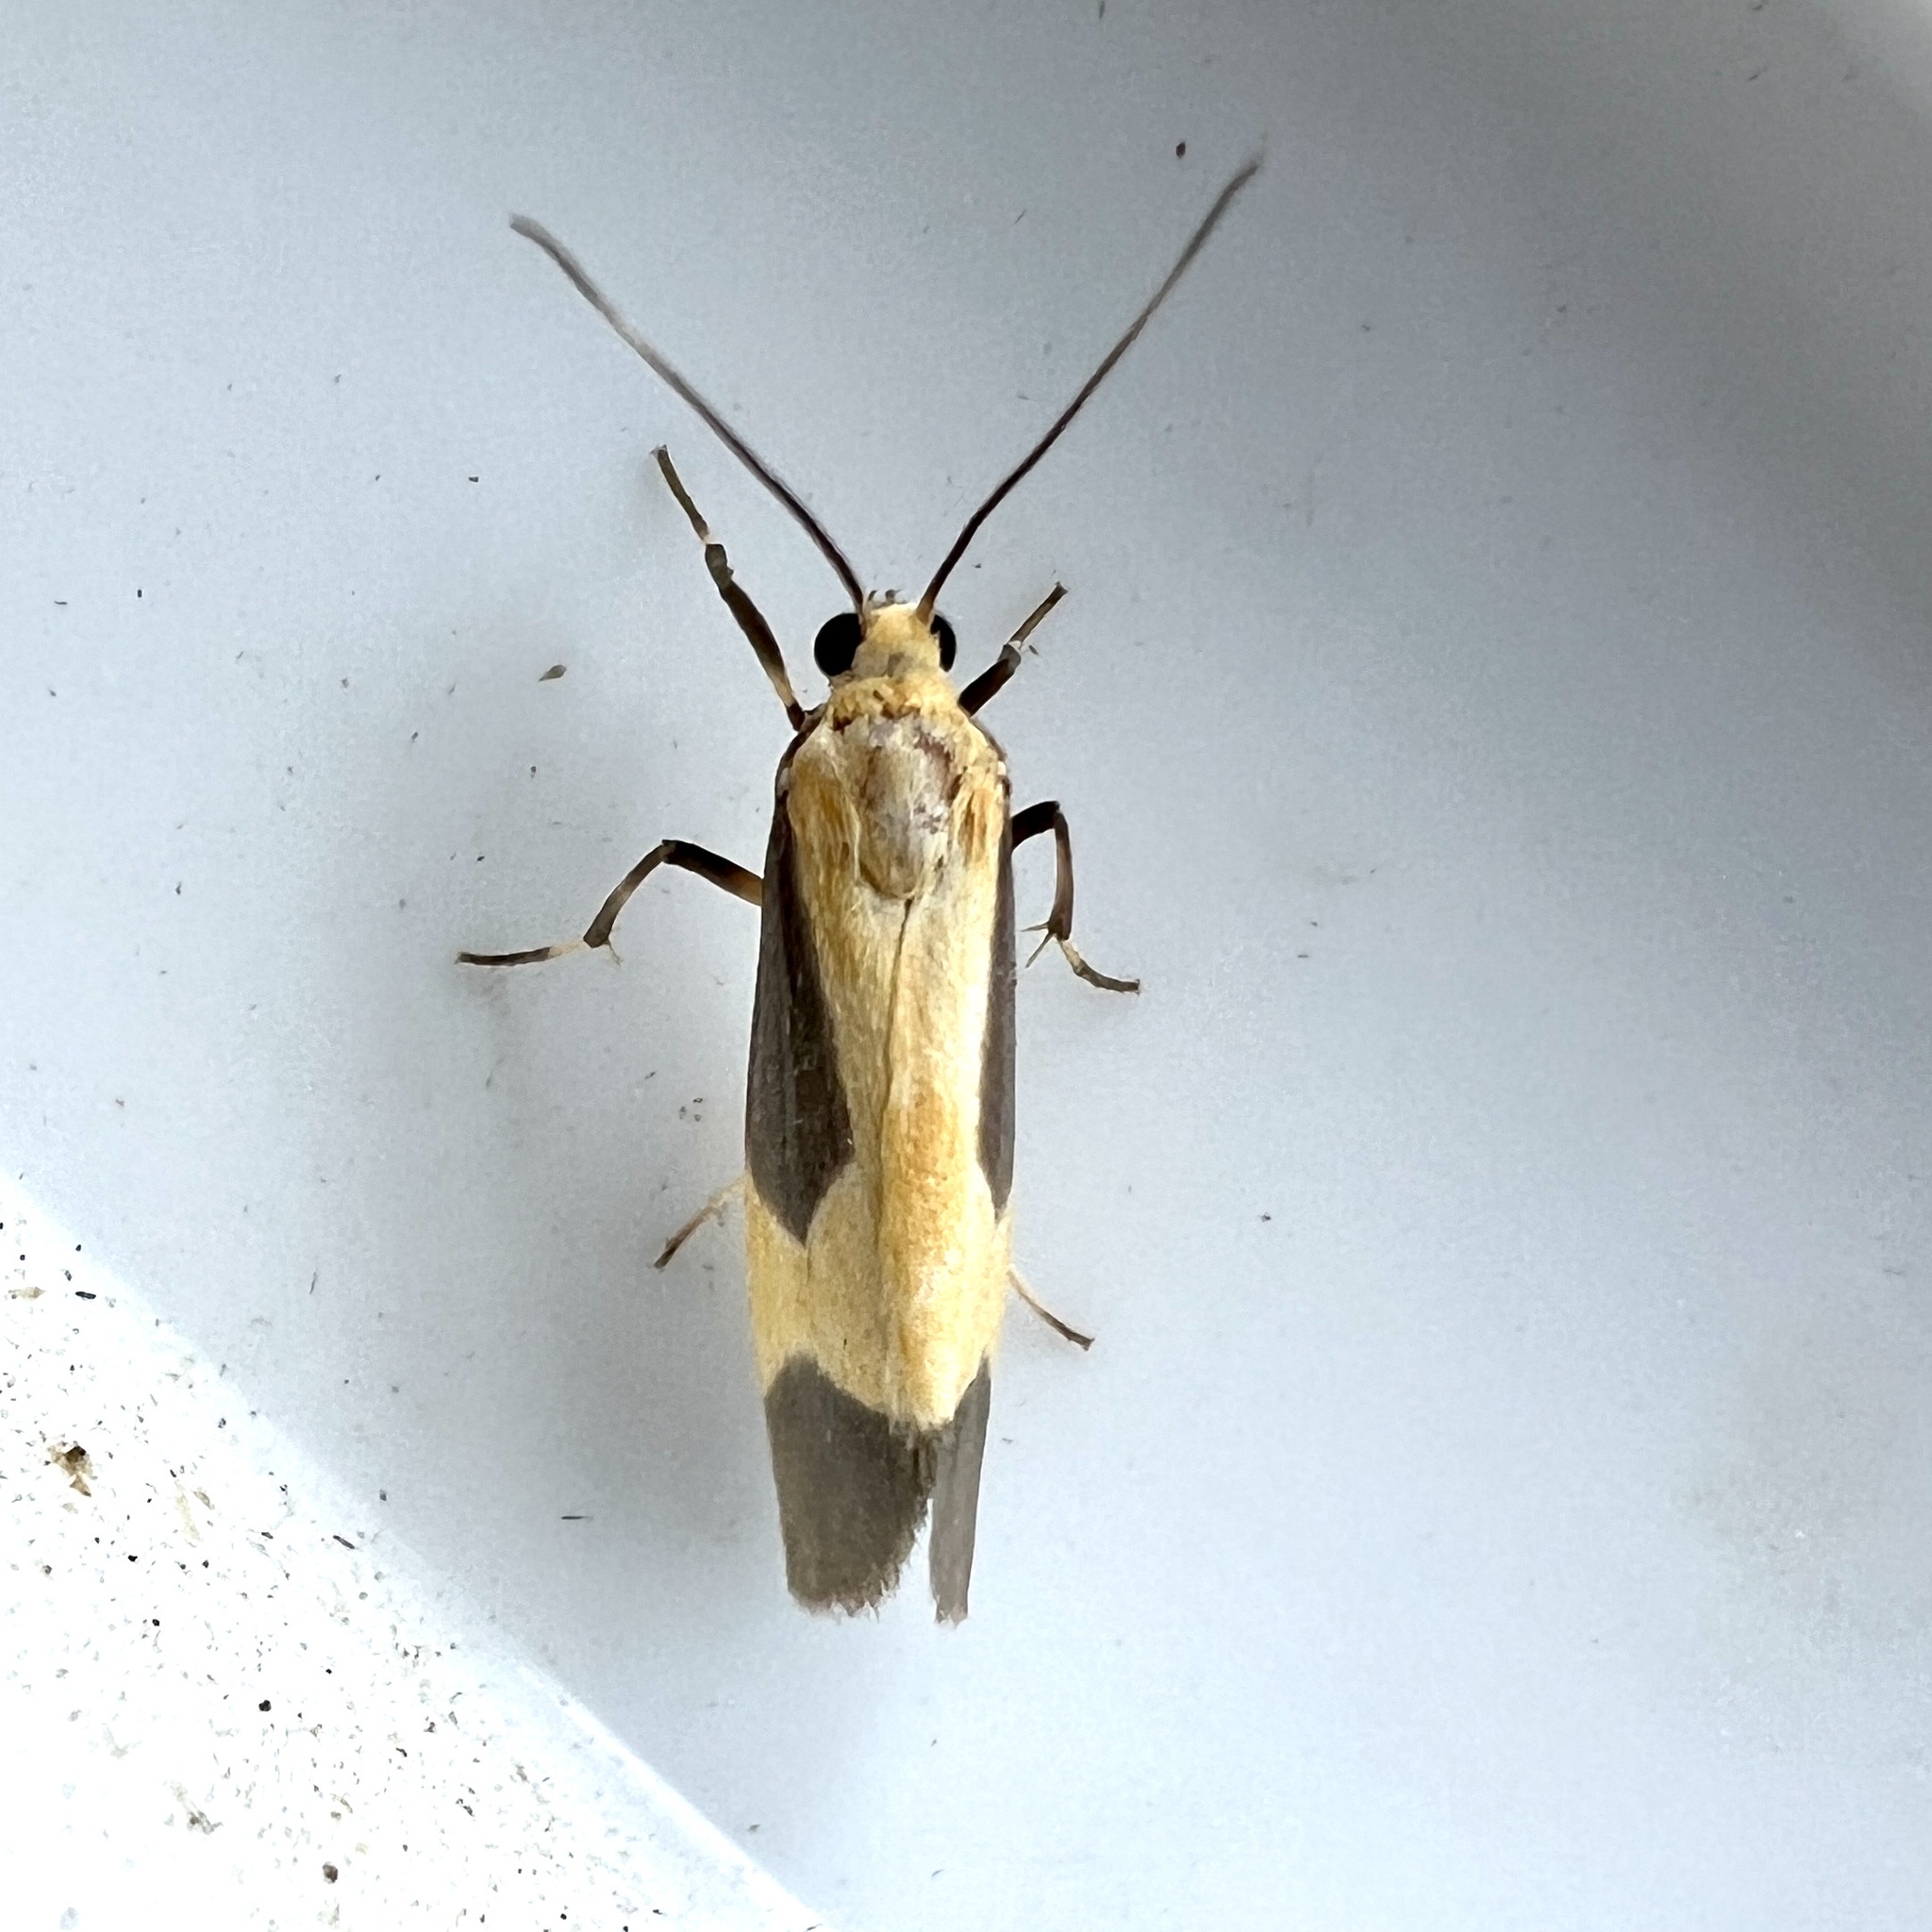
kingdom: Animalia
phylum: Arthropoda
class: Insecta
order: Lepidoptera
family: Erebidae
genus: Cisthene
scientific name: Cisthene picta
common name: Pictured lichen moth
